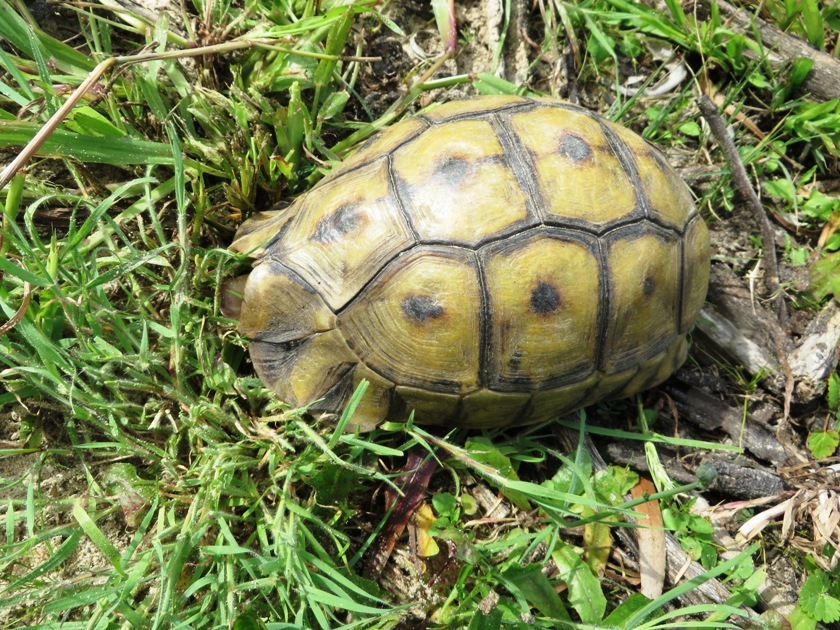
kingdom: Animalia
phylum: Chordata
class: Testudines
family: Testudinidae
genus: Chersina
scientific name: Chersina angulata
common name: South african bowsprit tortoise
